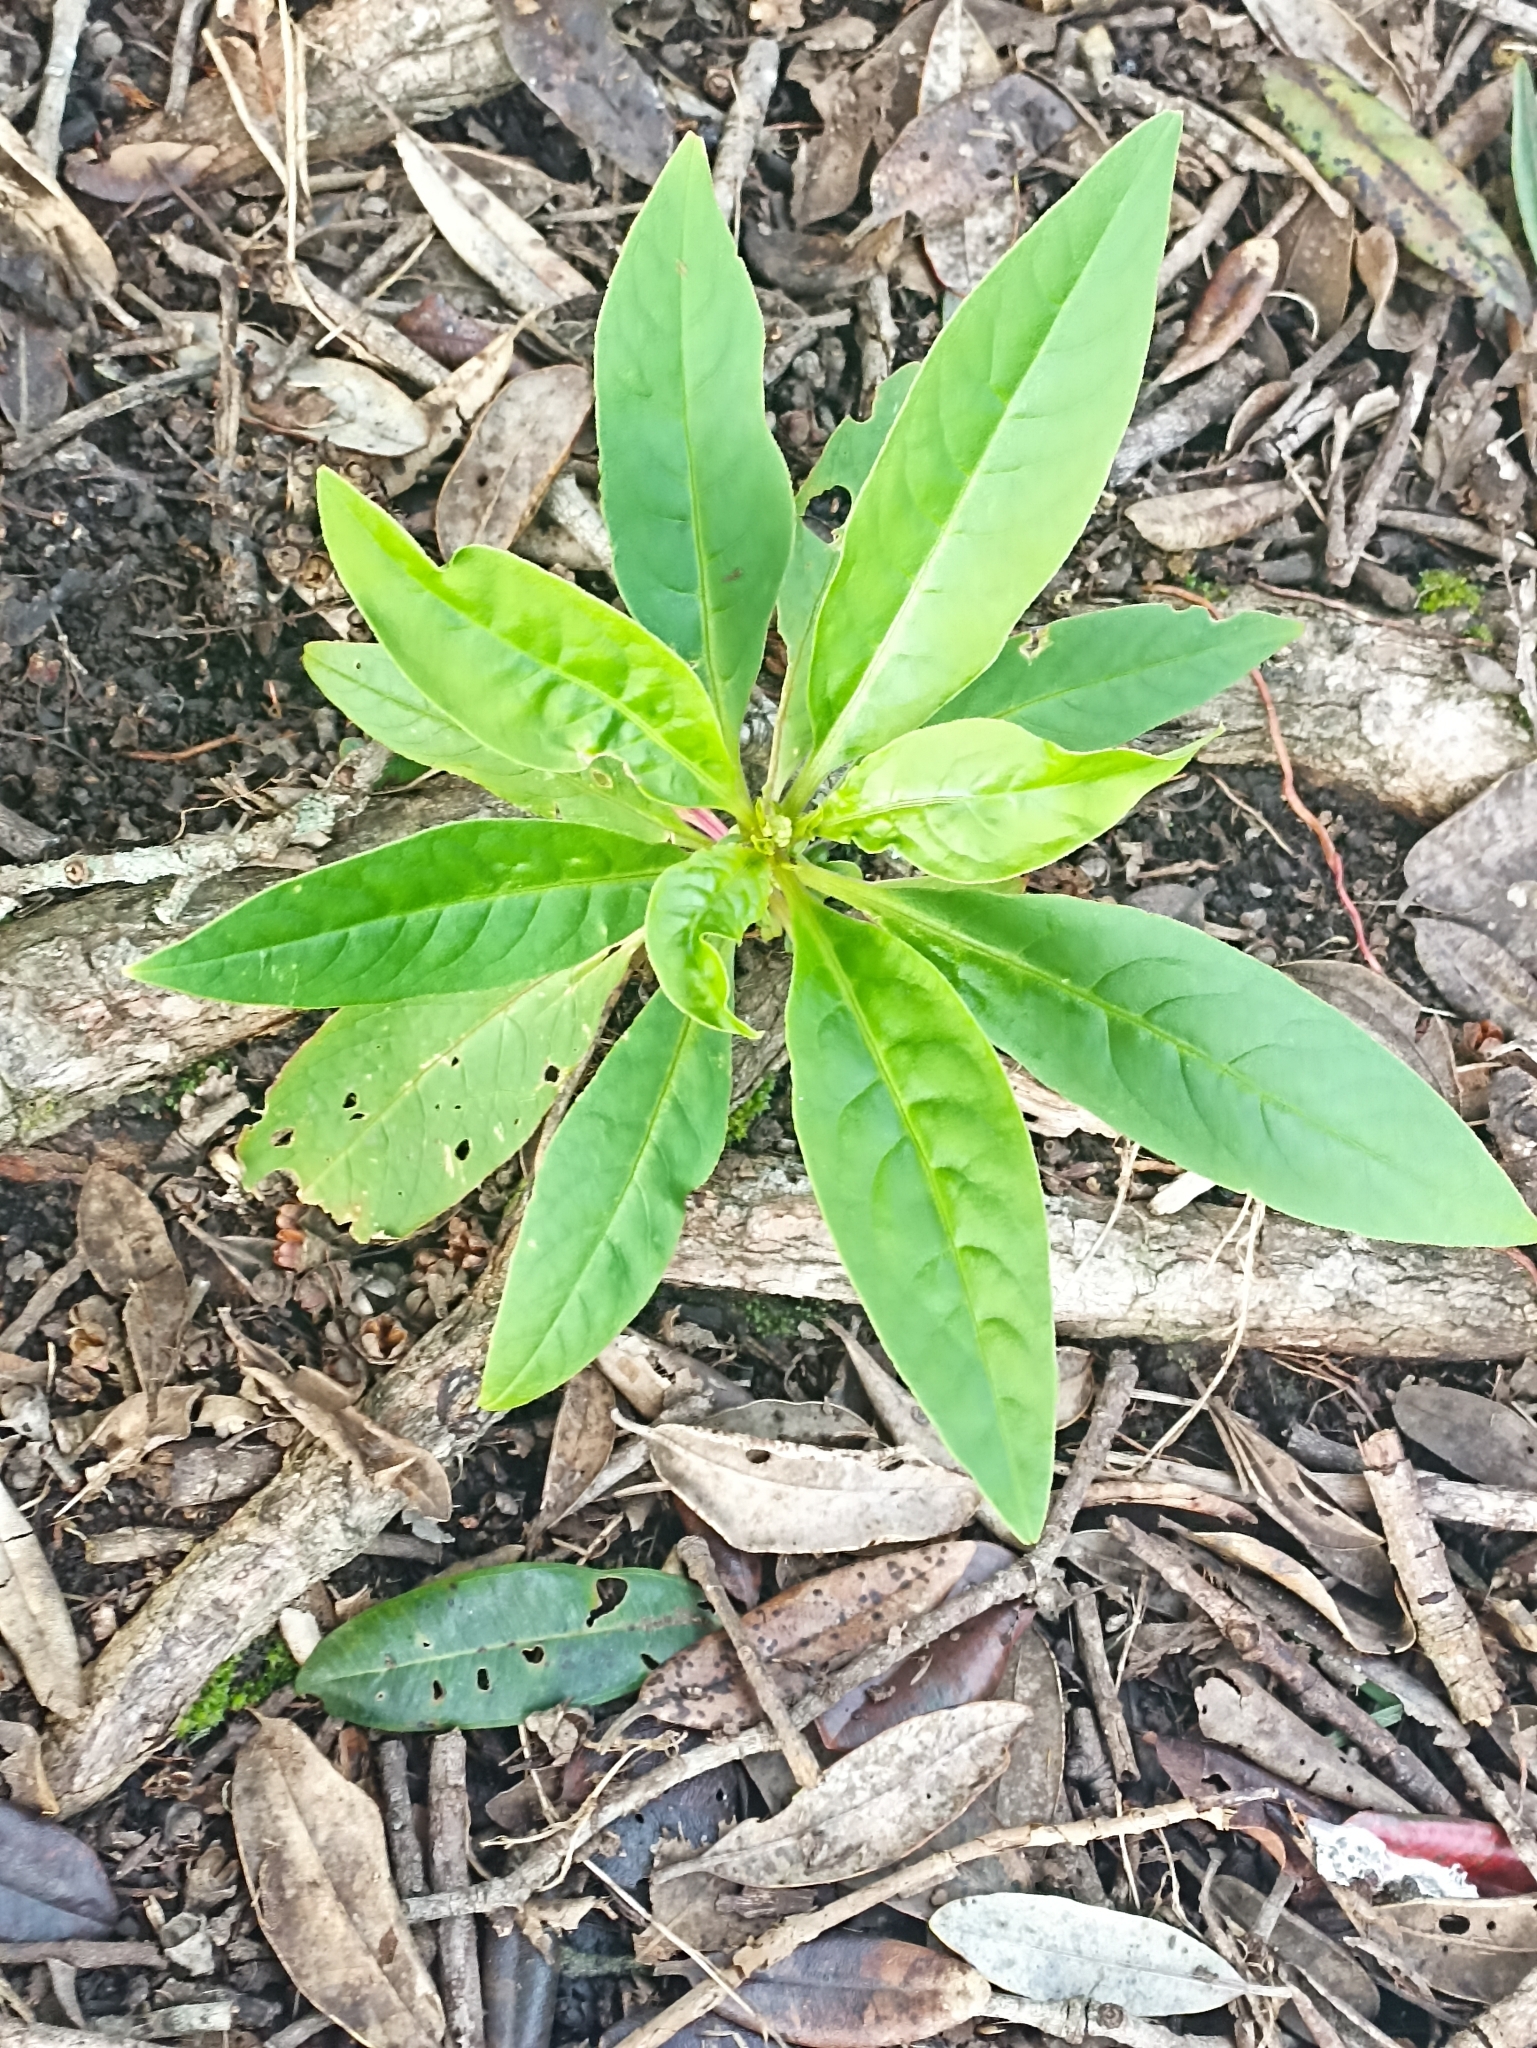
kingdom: Plantae
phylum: Tracheophyta
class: Magnoliopsida
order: Caryophyllales
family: Phytolaccaceae
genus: Phytolacca
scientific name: Phytolacca icosandra
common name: Button pokeweed
